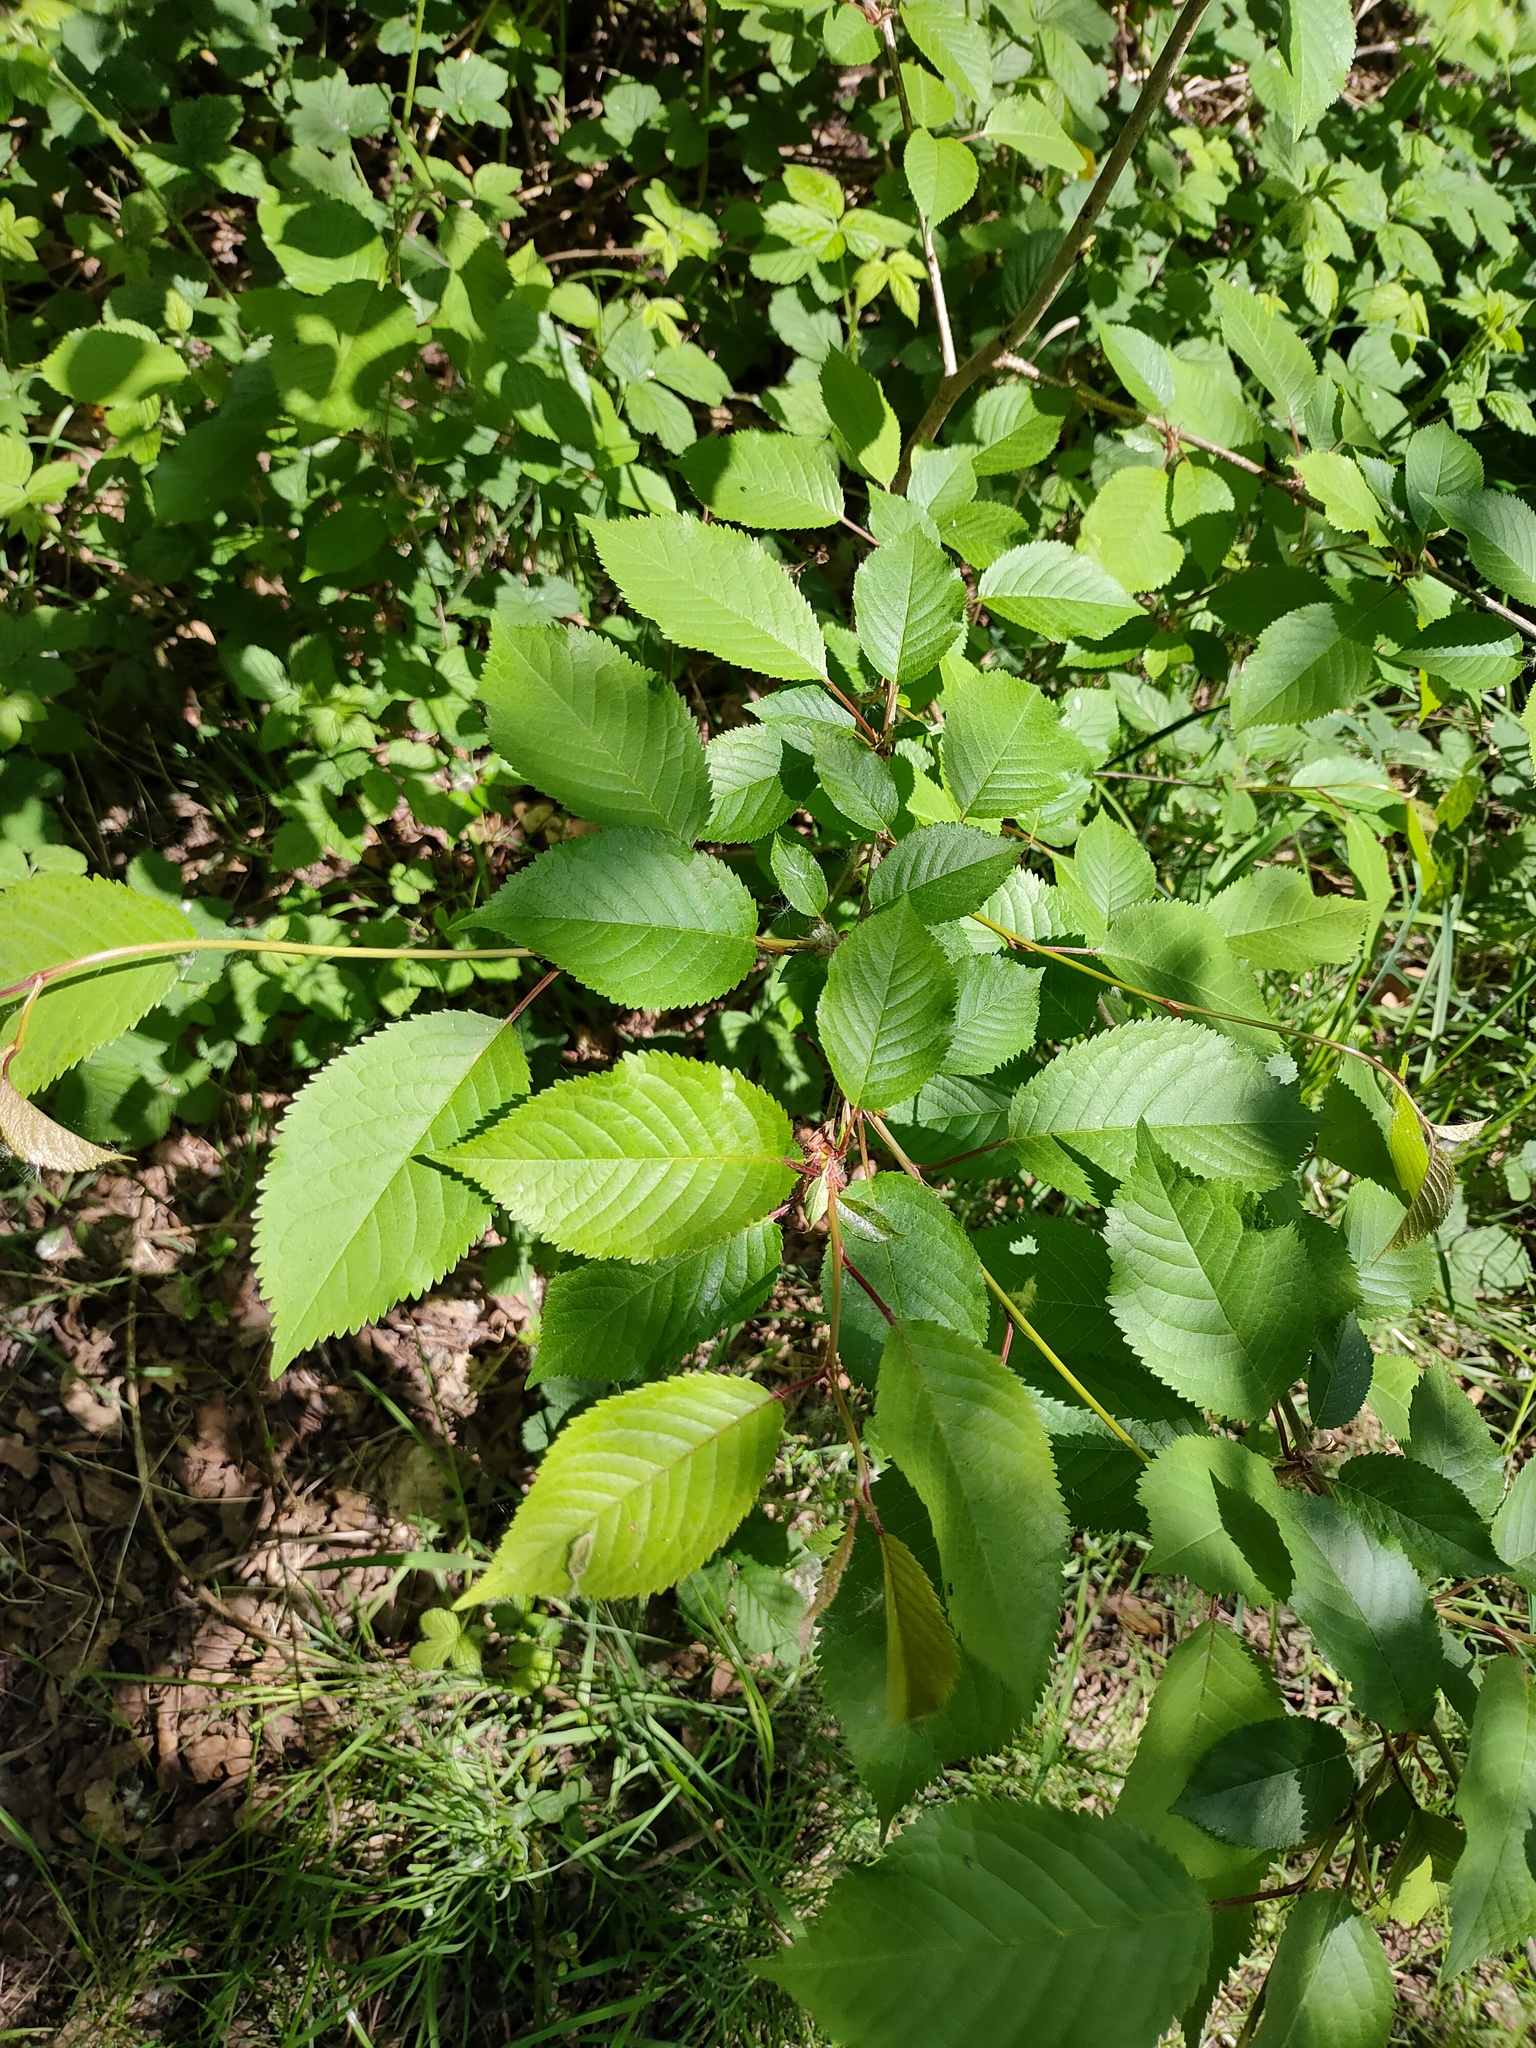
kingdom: Plantae
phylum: Tracheophyta
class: Magnoliopsida
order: Rosales
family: Rosaceae
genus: Prunus
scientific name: Prunus avium
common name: Sweet cherry
